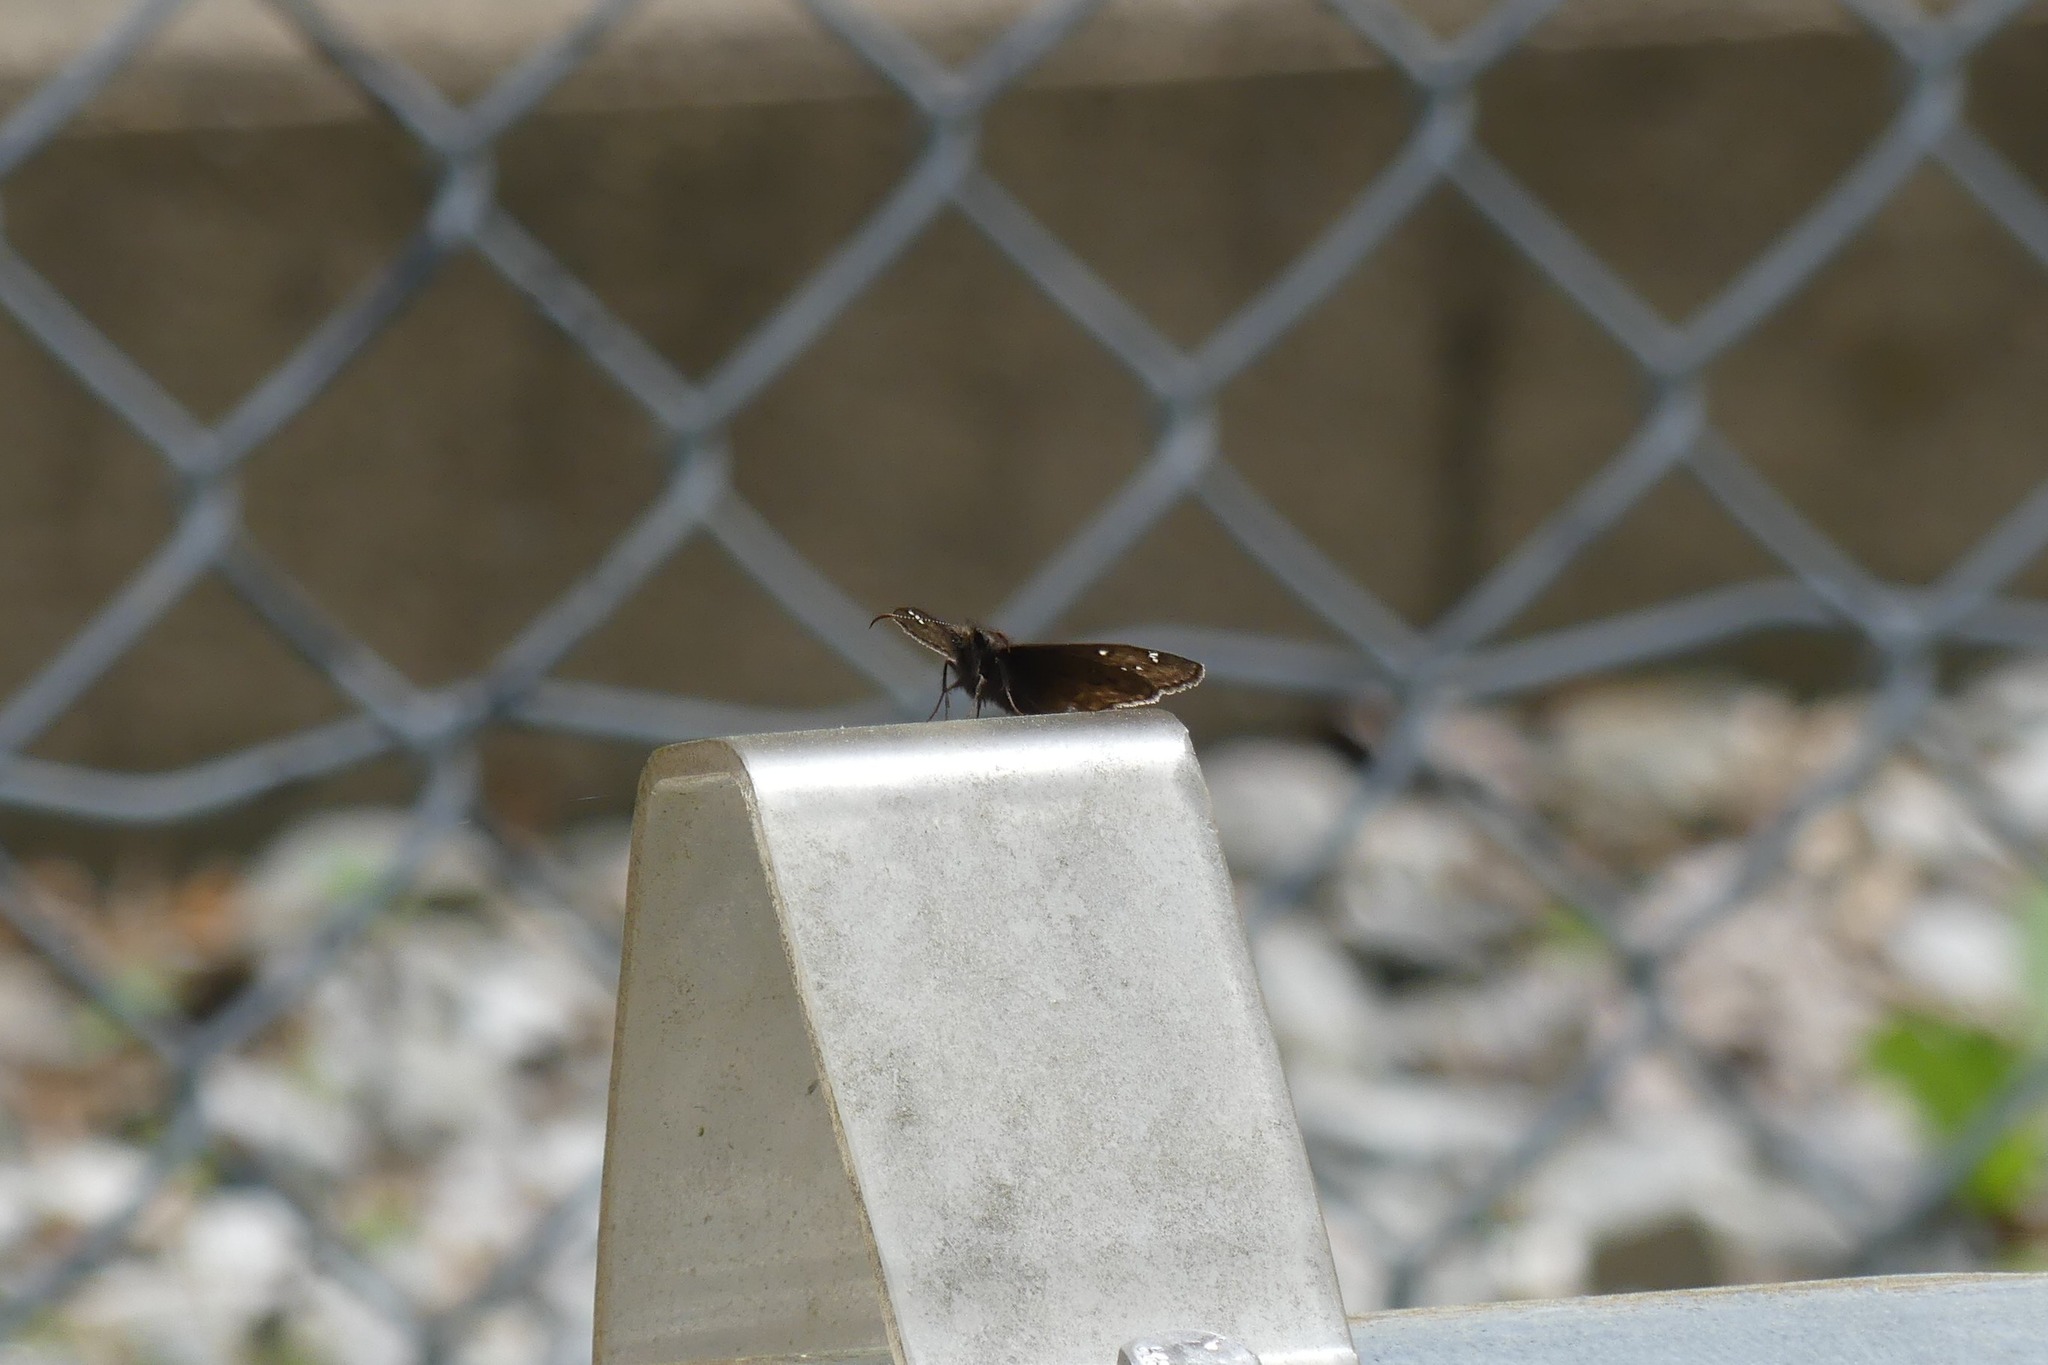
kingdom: Animalia
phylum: Arthropoda
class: Insecta
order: Lepidoptera
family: Hesperiidae
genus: Erynnis
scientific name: Erynnis juvenalis
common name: Juvenal's duskywing
